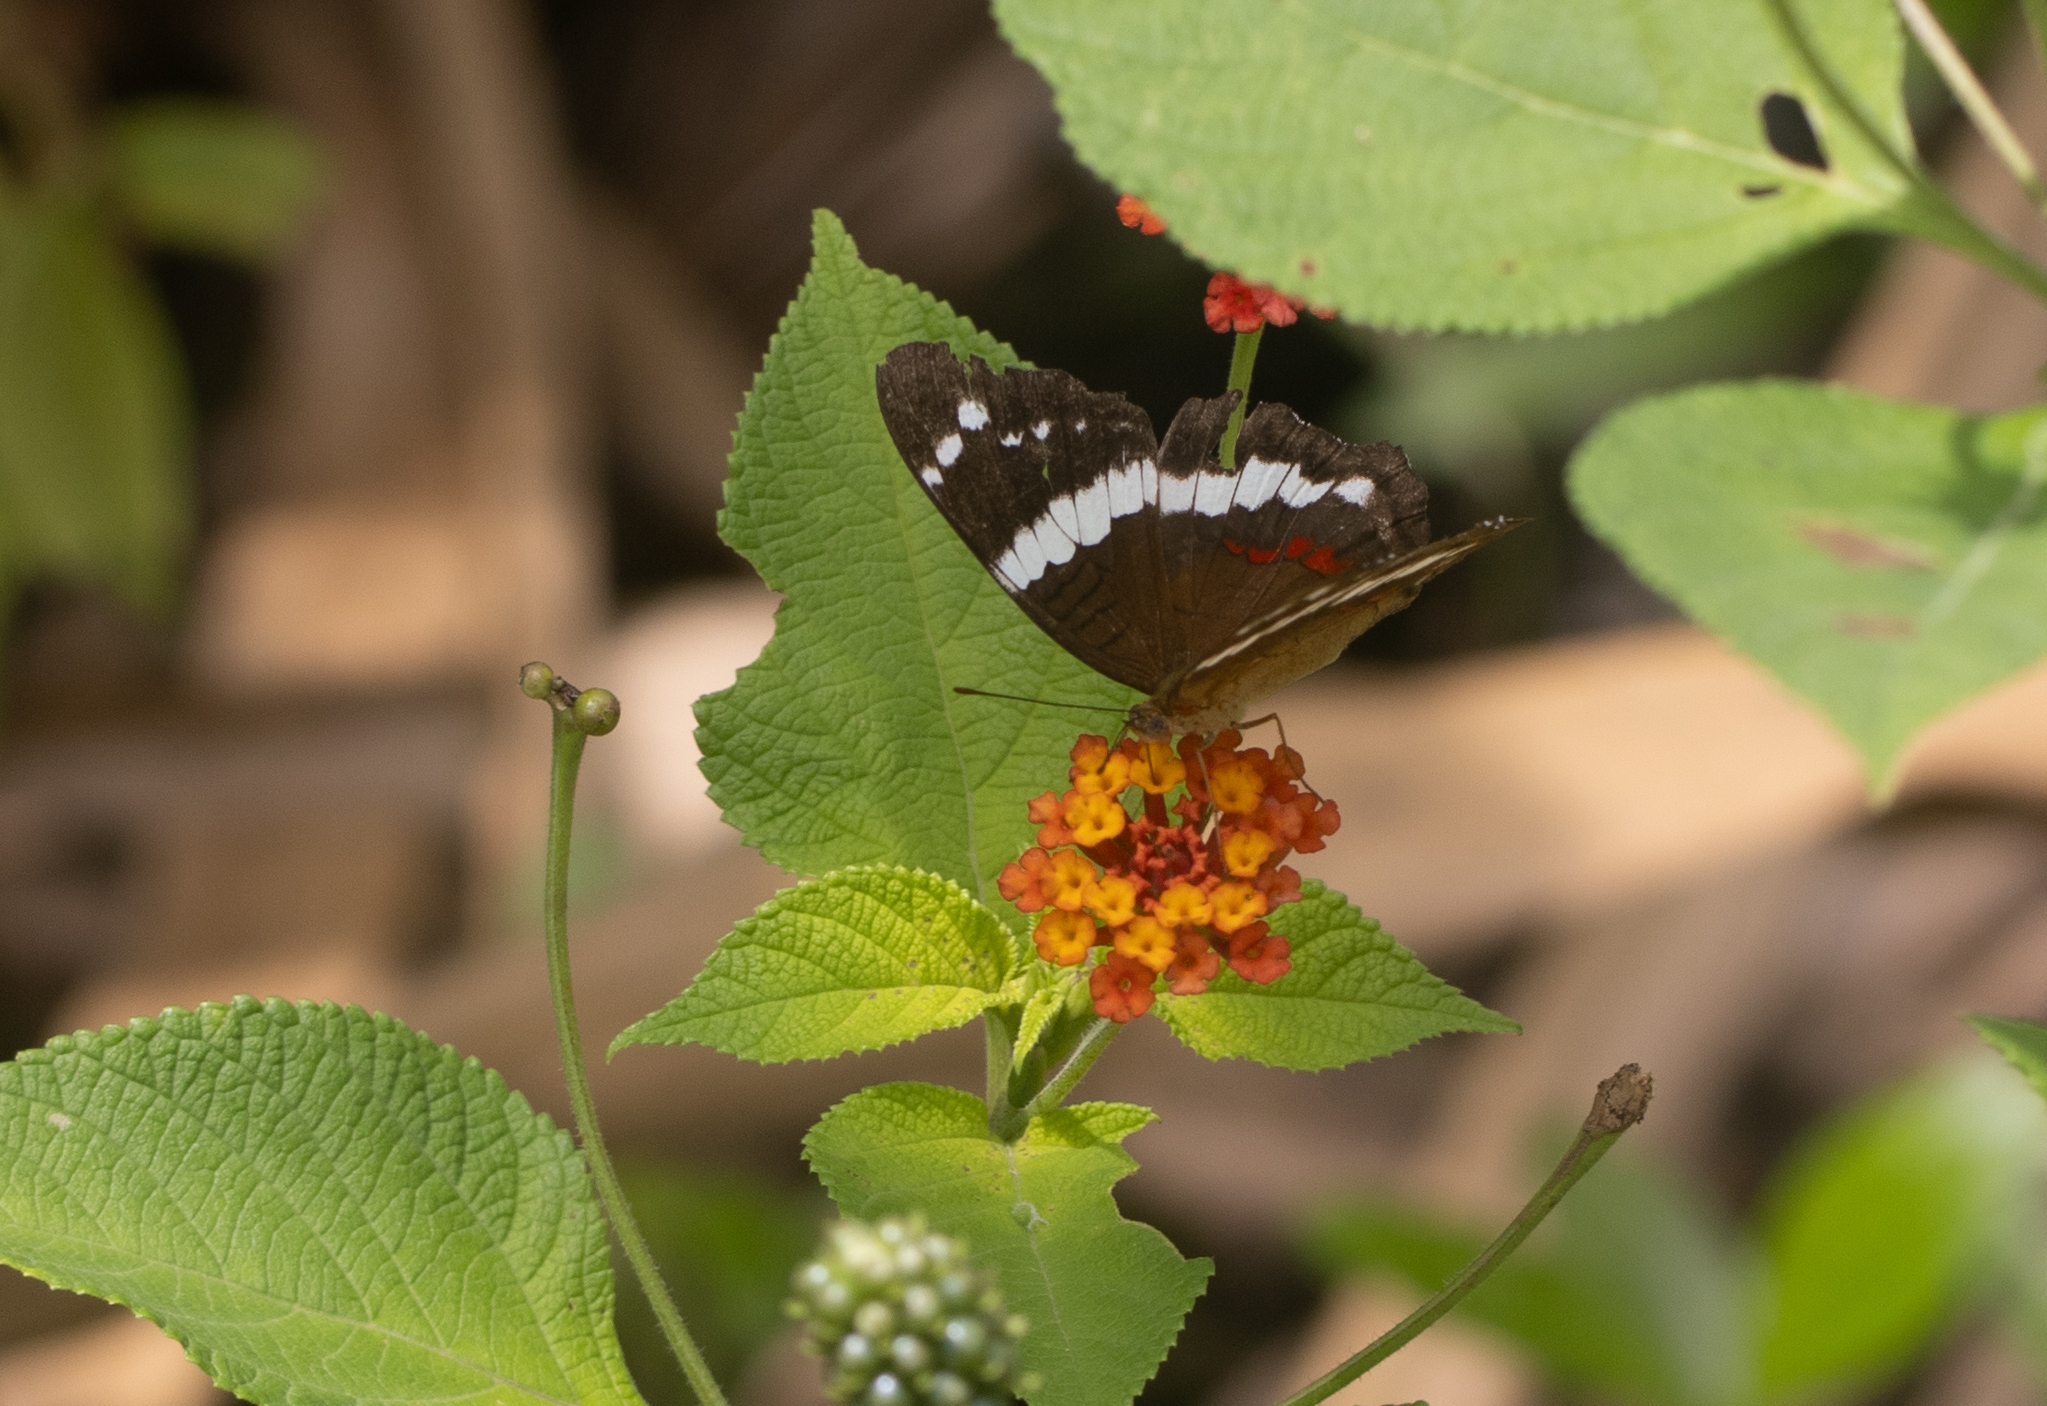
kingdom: Animalia
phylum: Arthropoda
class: Insecta
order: Lepidoptera
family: Nymphalidae
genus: Anartia
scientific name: Anartia fatima
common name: Banded peacock
